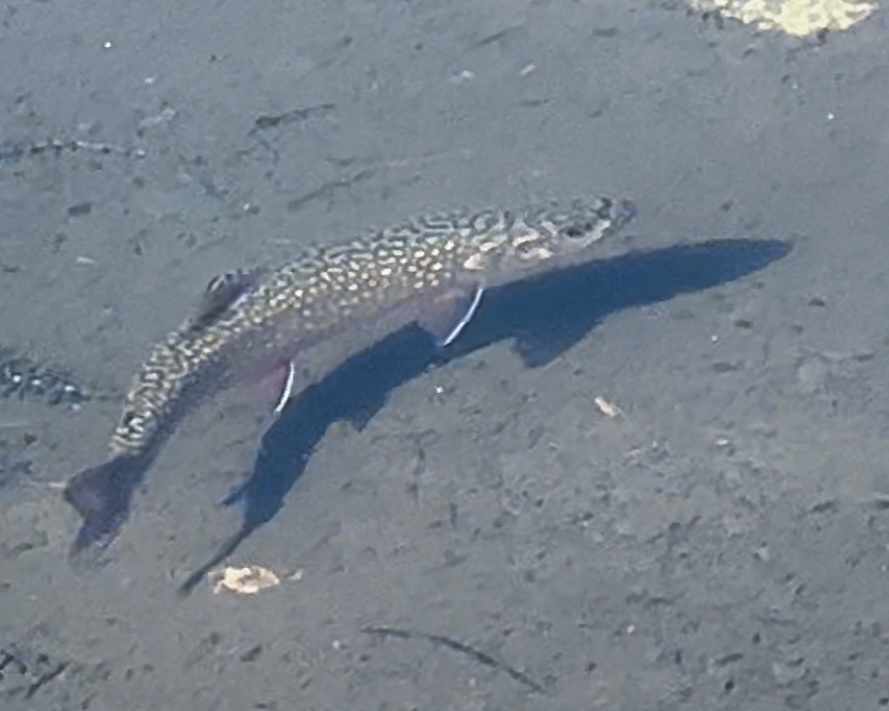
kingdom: Animalia
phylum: Chordata
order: Salmoniformes
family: Salmonidae
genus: Salvelinus
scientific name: Salvelinus fontinalis
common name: Brook trout
